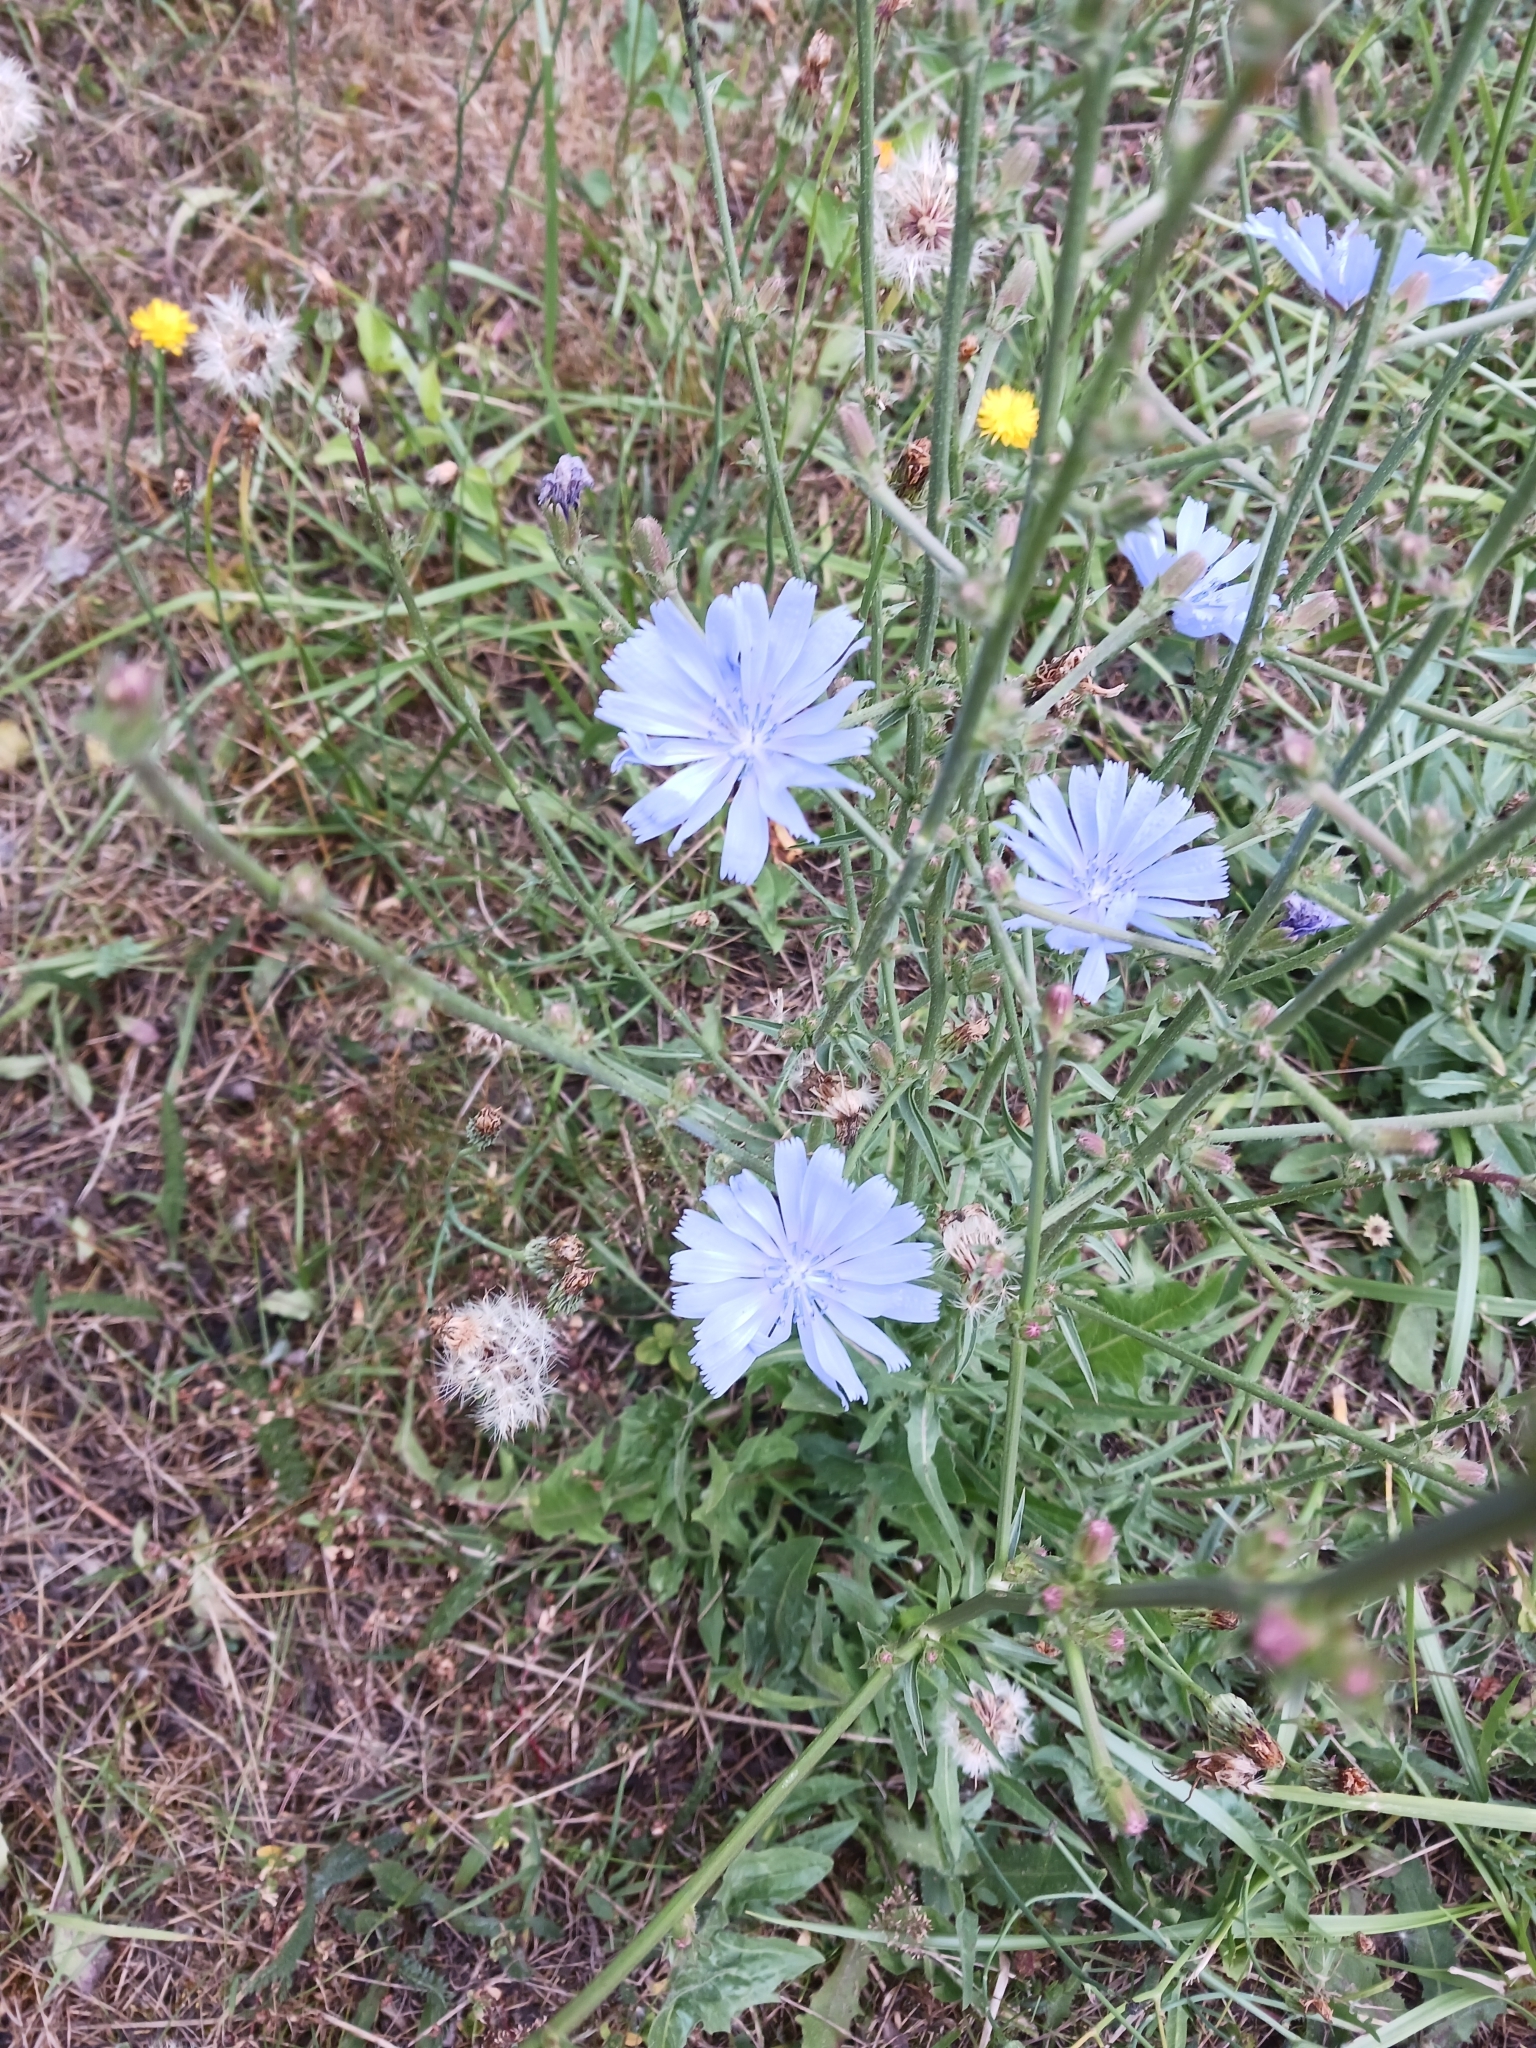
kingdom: Plantae
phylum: Tracheophyta
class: Magnoliopsida
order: Asterales
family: Asteraceae
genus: Cichorium
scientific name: Cichorium intybus
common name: Chicory
